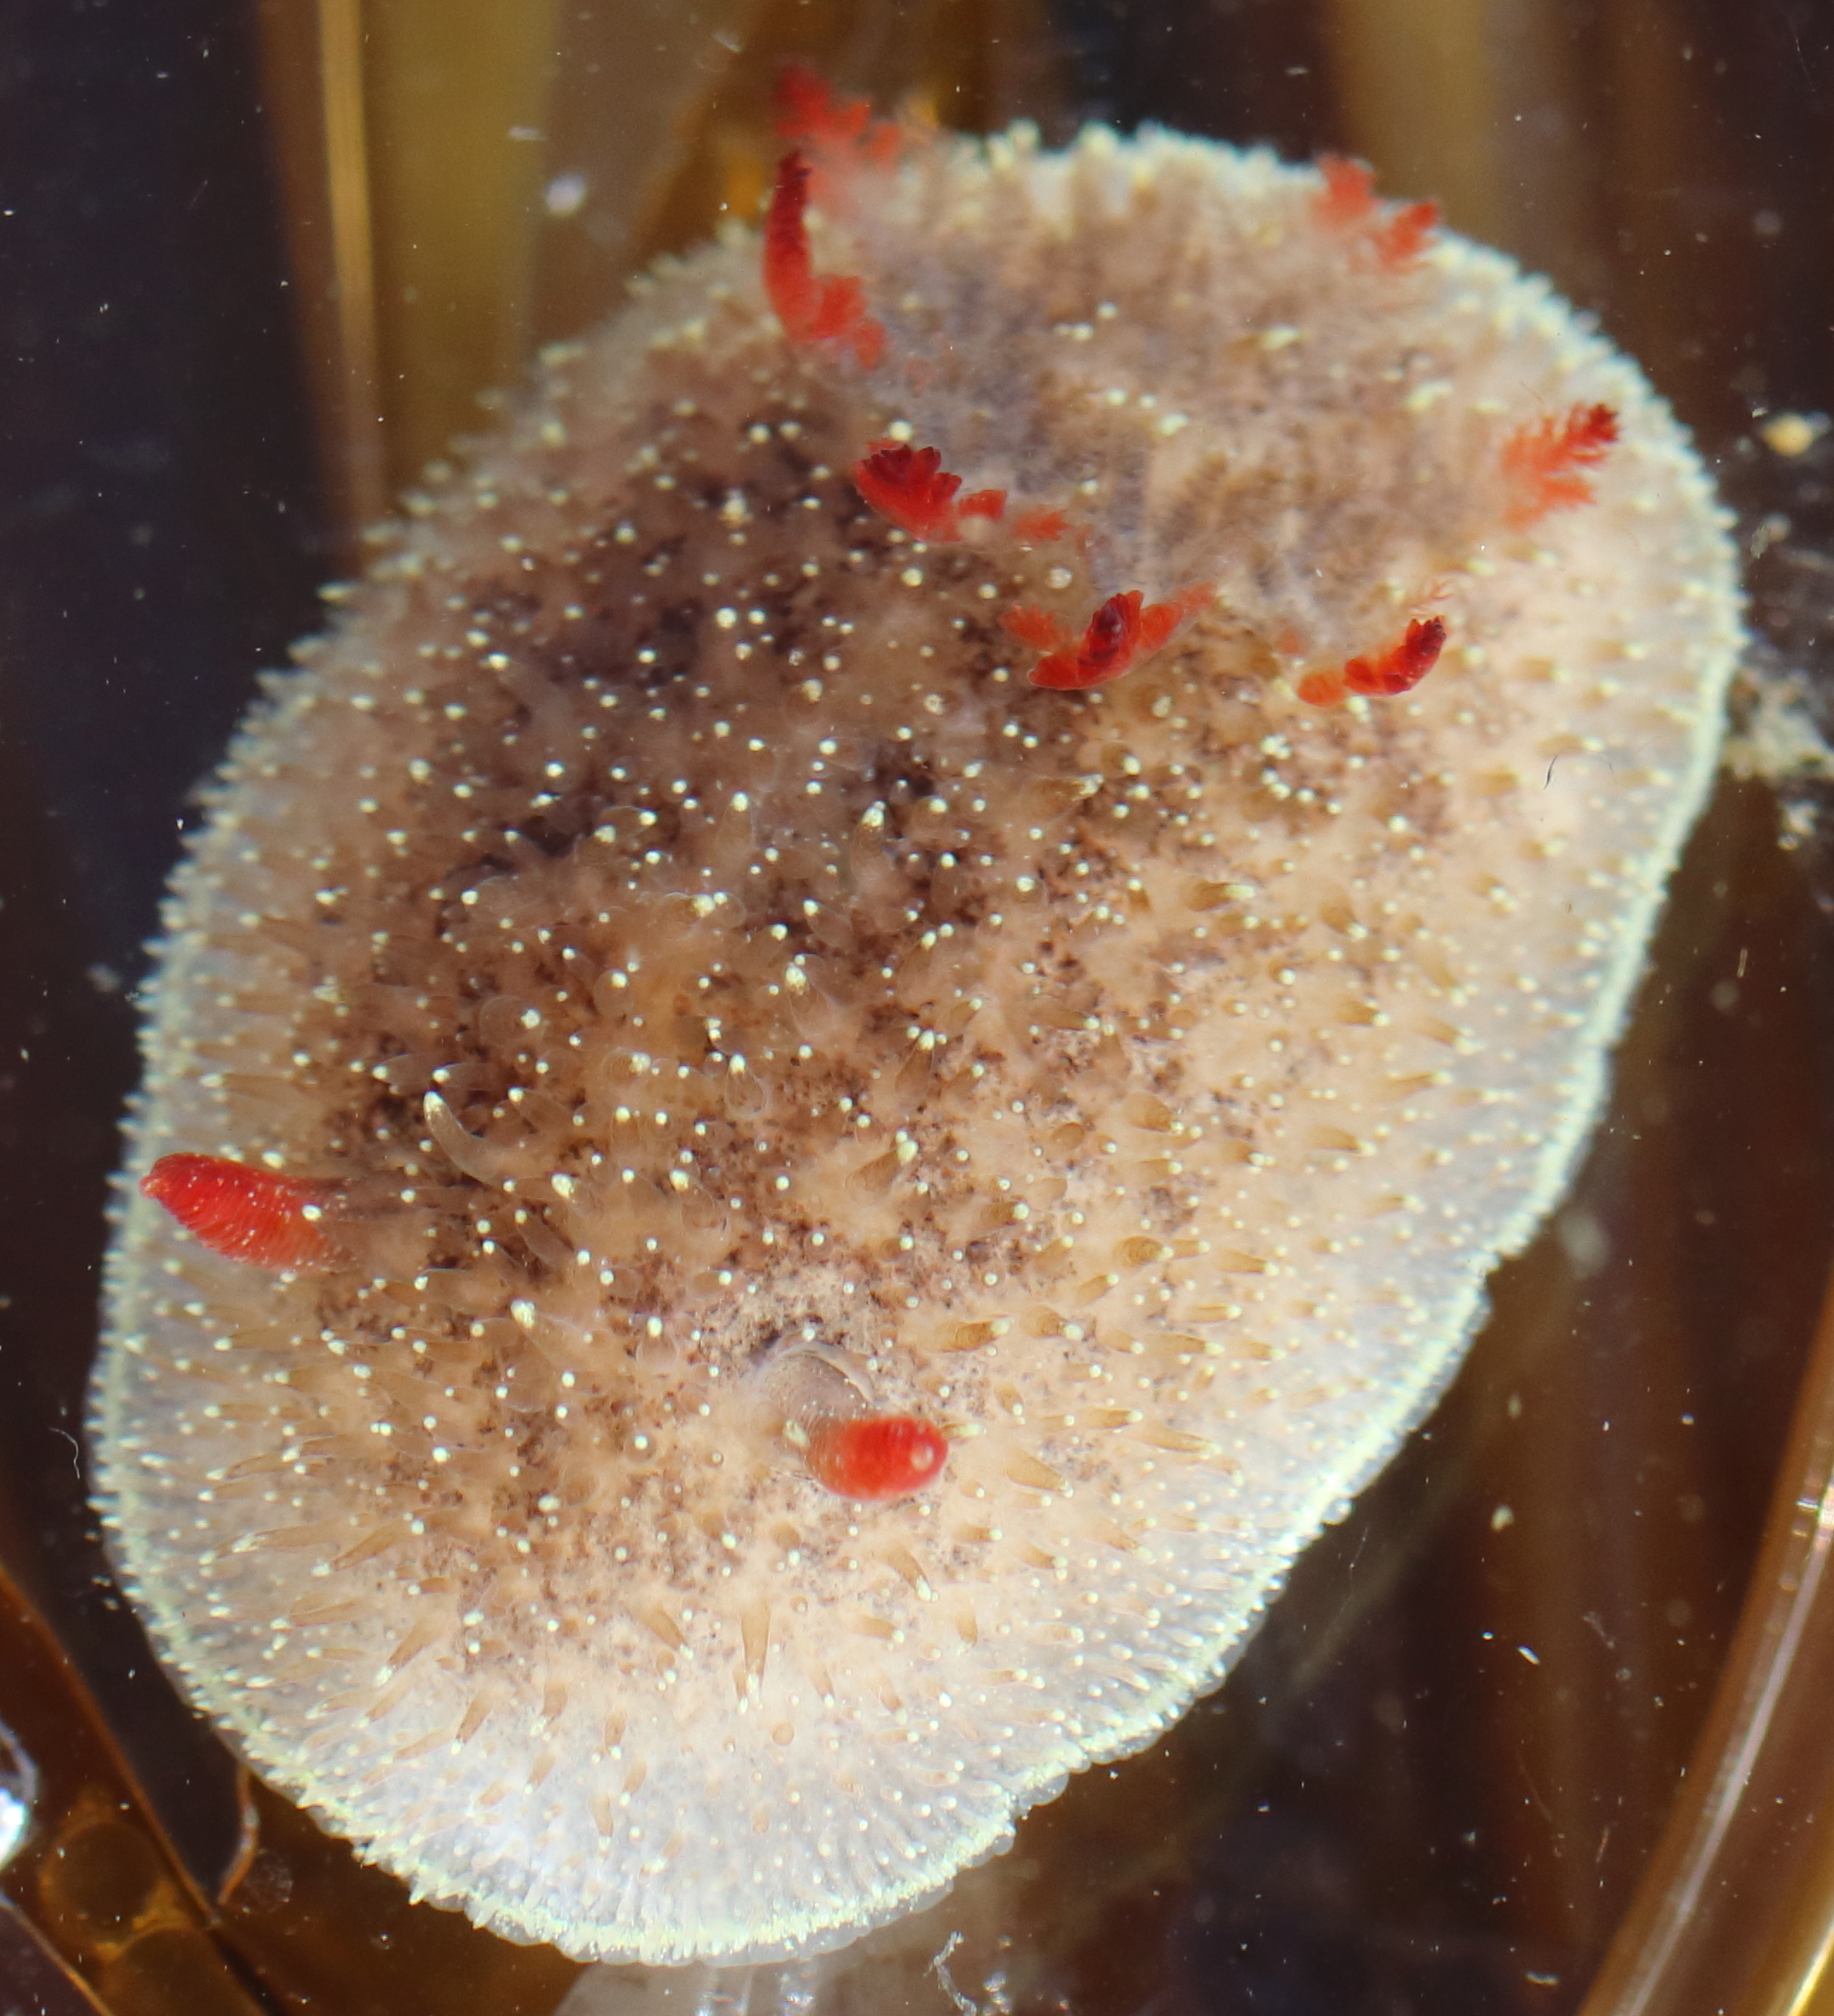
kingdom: Animalia
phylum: Mollusca
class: Gastropoda
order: Nudibranchia
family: Onchidorididae
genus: Acanthodoris
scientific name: Acanthodoris nanaimoensis
